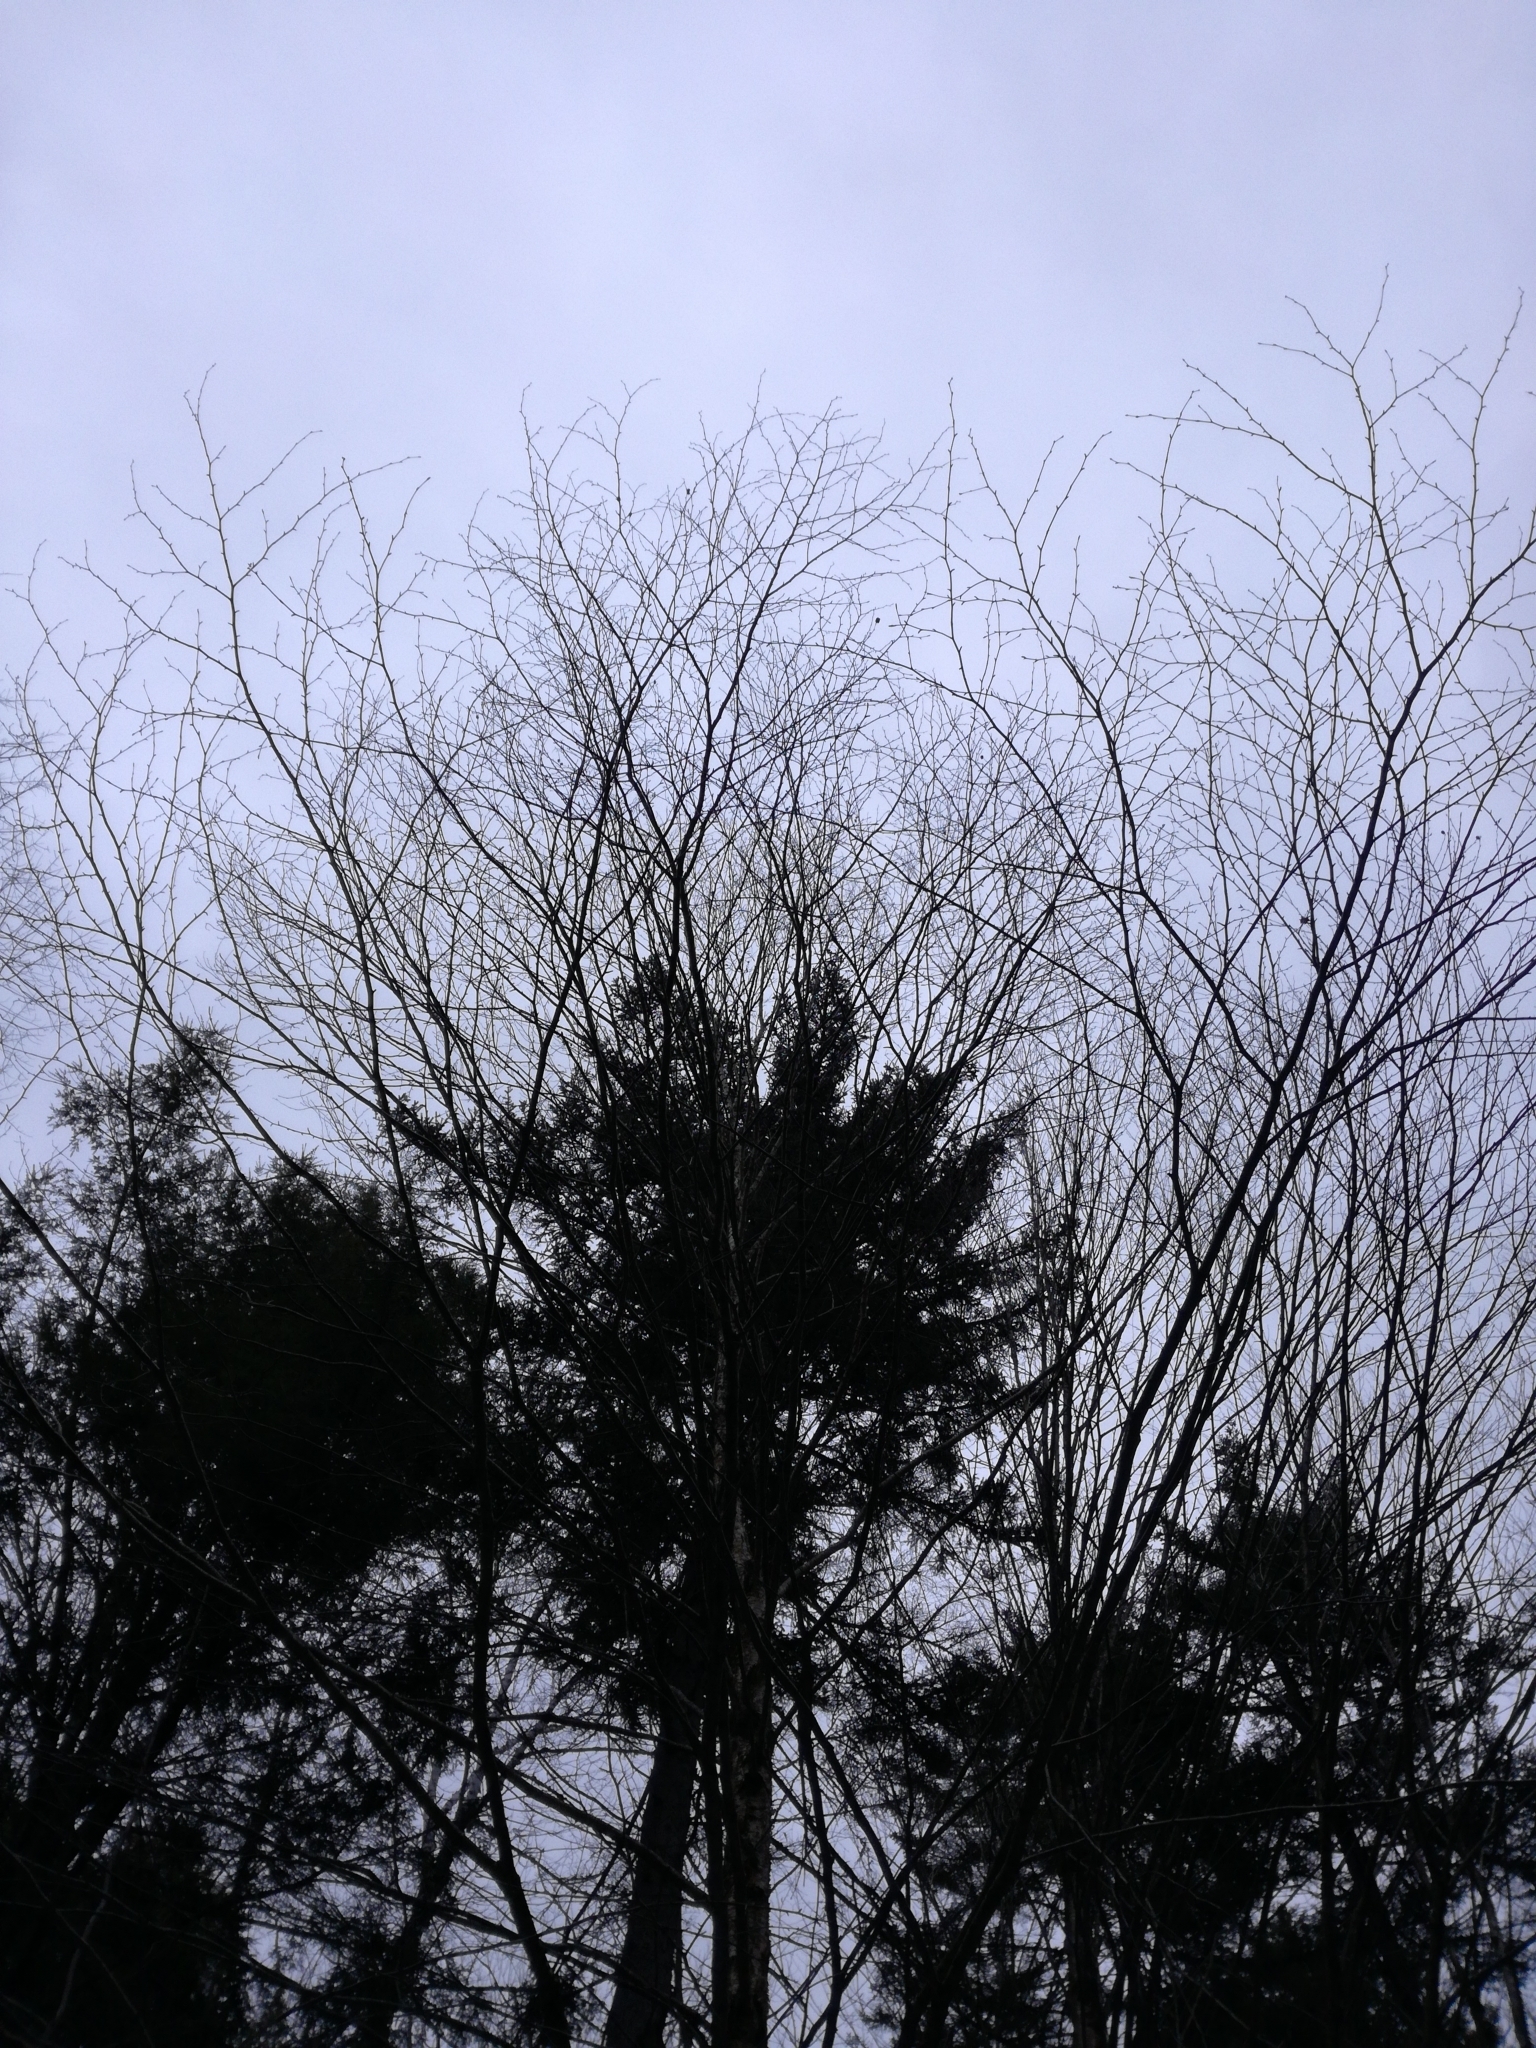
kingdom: Plantae
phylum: Tracheophyta
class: Magnoliopsida
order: Fagales
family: Betulaceae
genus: Betula
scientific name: Betula alleghaniensis
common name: Yellow birch
